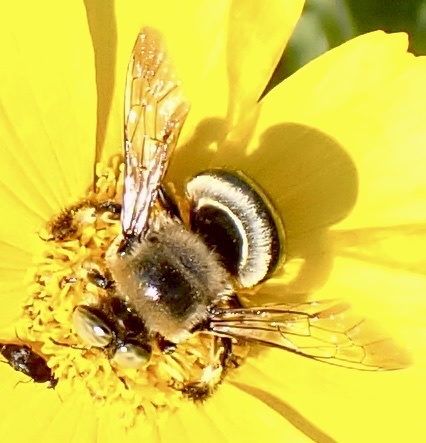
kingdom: Animalia
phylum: Arthropoda
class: Insecta
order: Hymenoptera
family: Apidae
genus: Xylocopa
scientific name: Xylocopa virginica
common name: Carpenter bee
